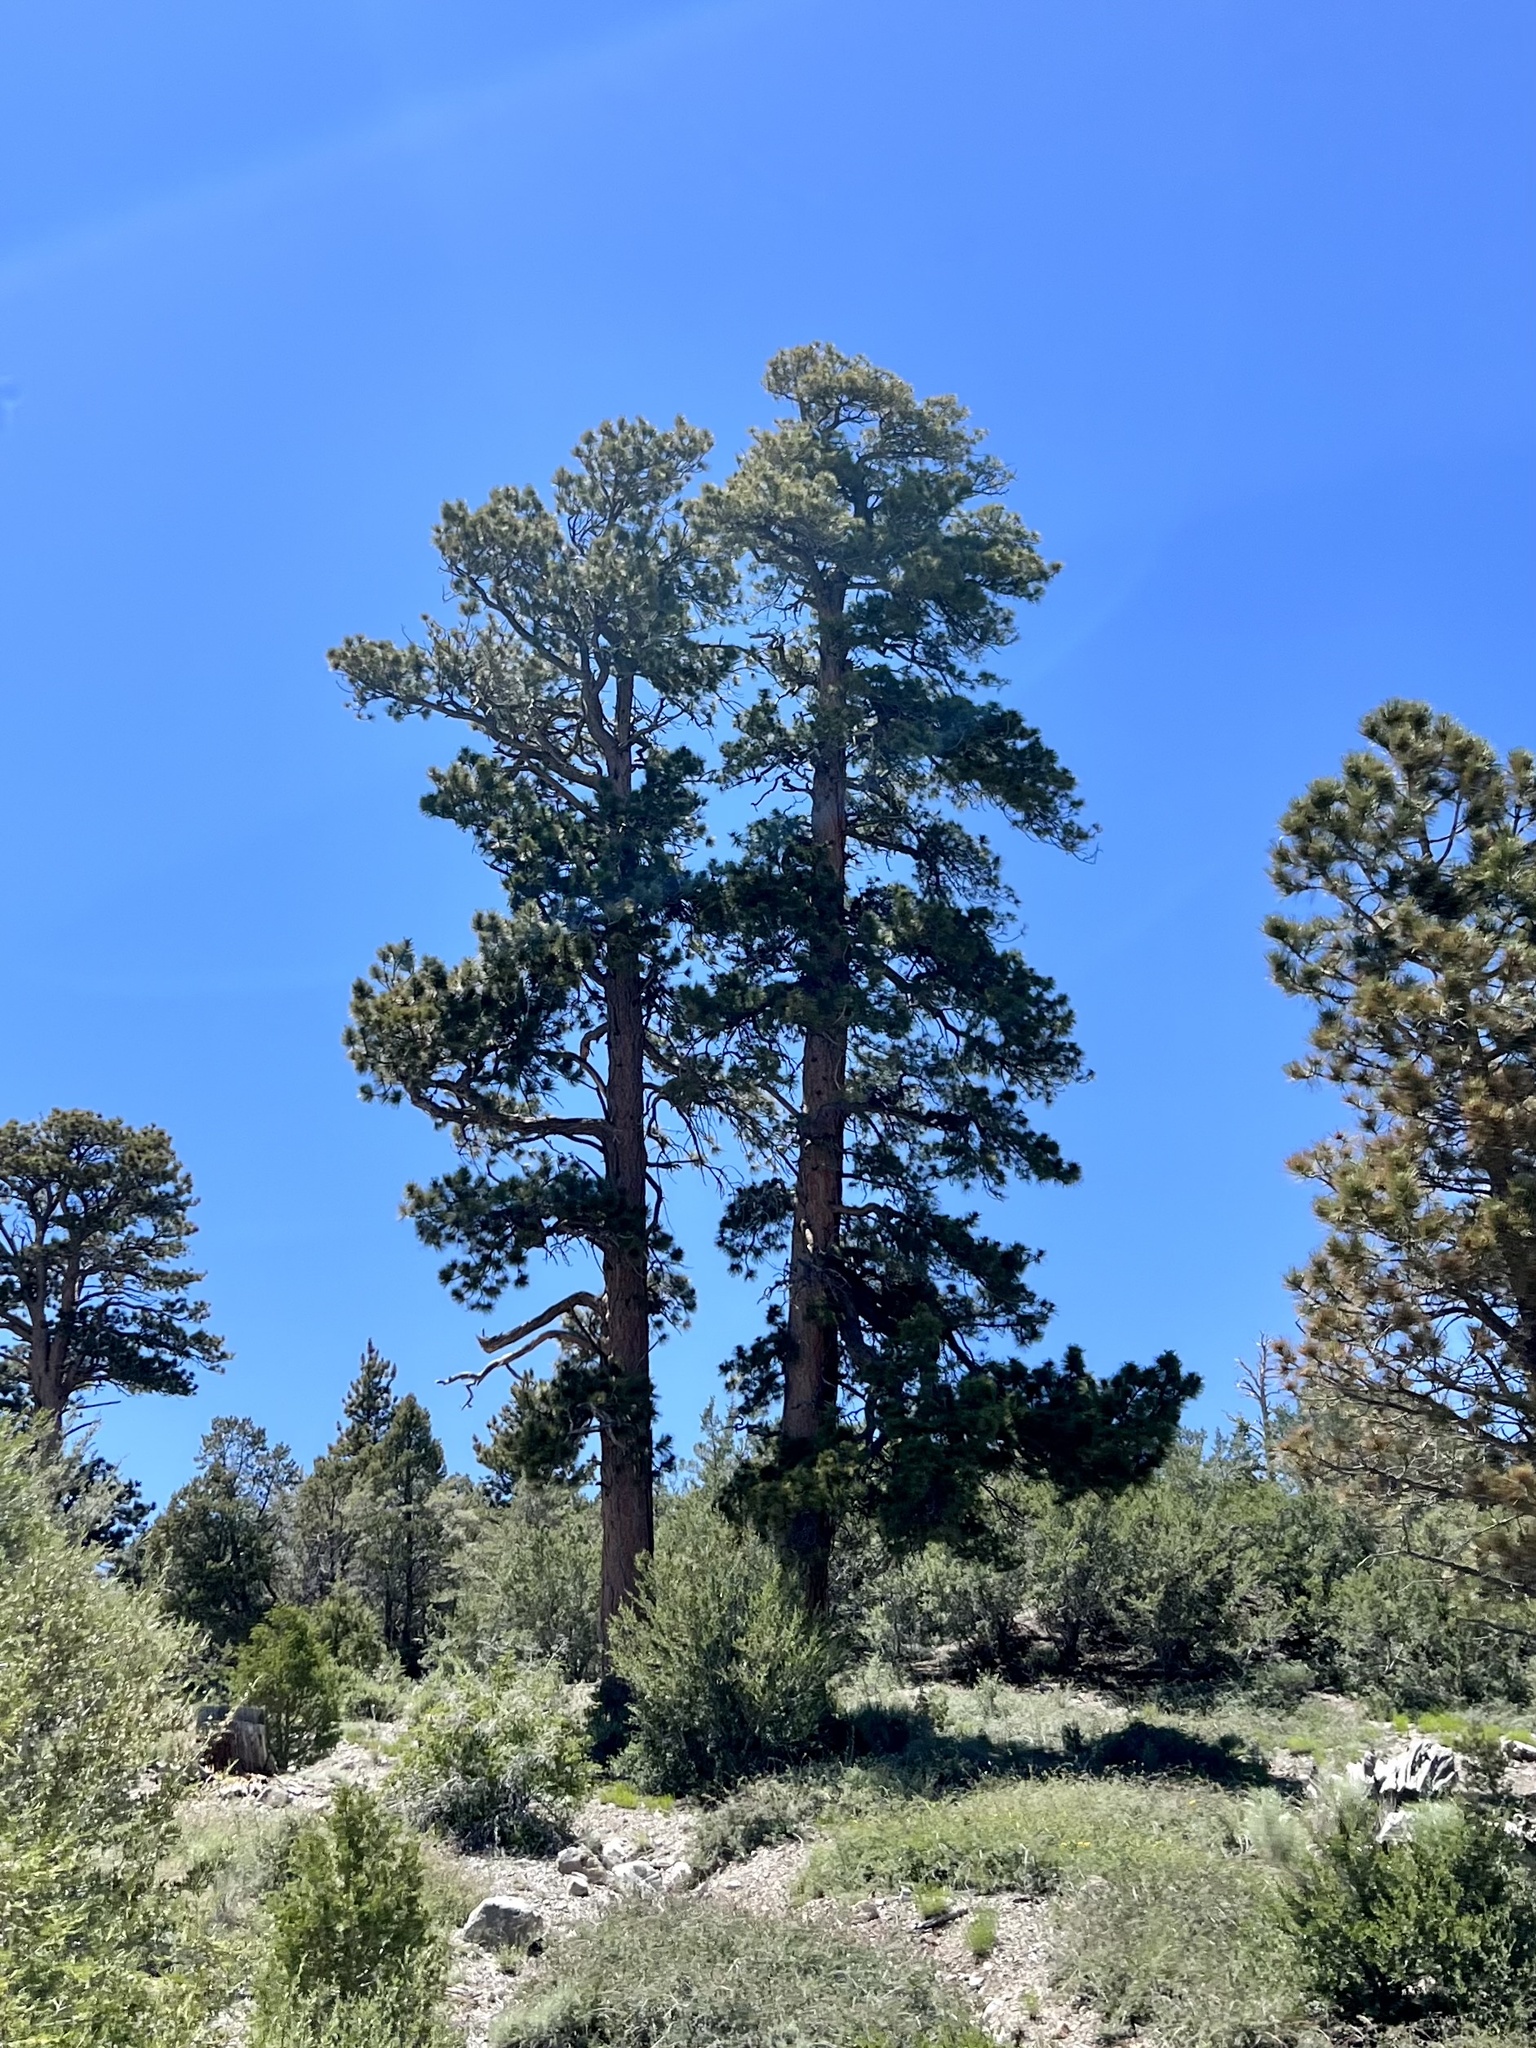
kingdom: Plantae
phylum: Tracheophyta
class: Pinopsida
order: Pinales
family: Pinaceae
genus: Pinus
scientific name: Pinus ponderosa
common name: Western yellow-pine
